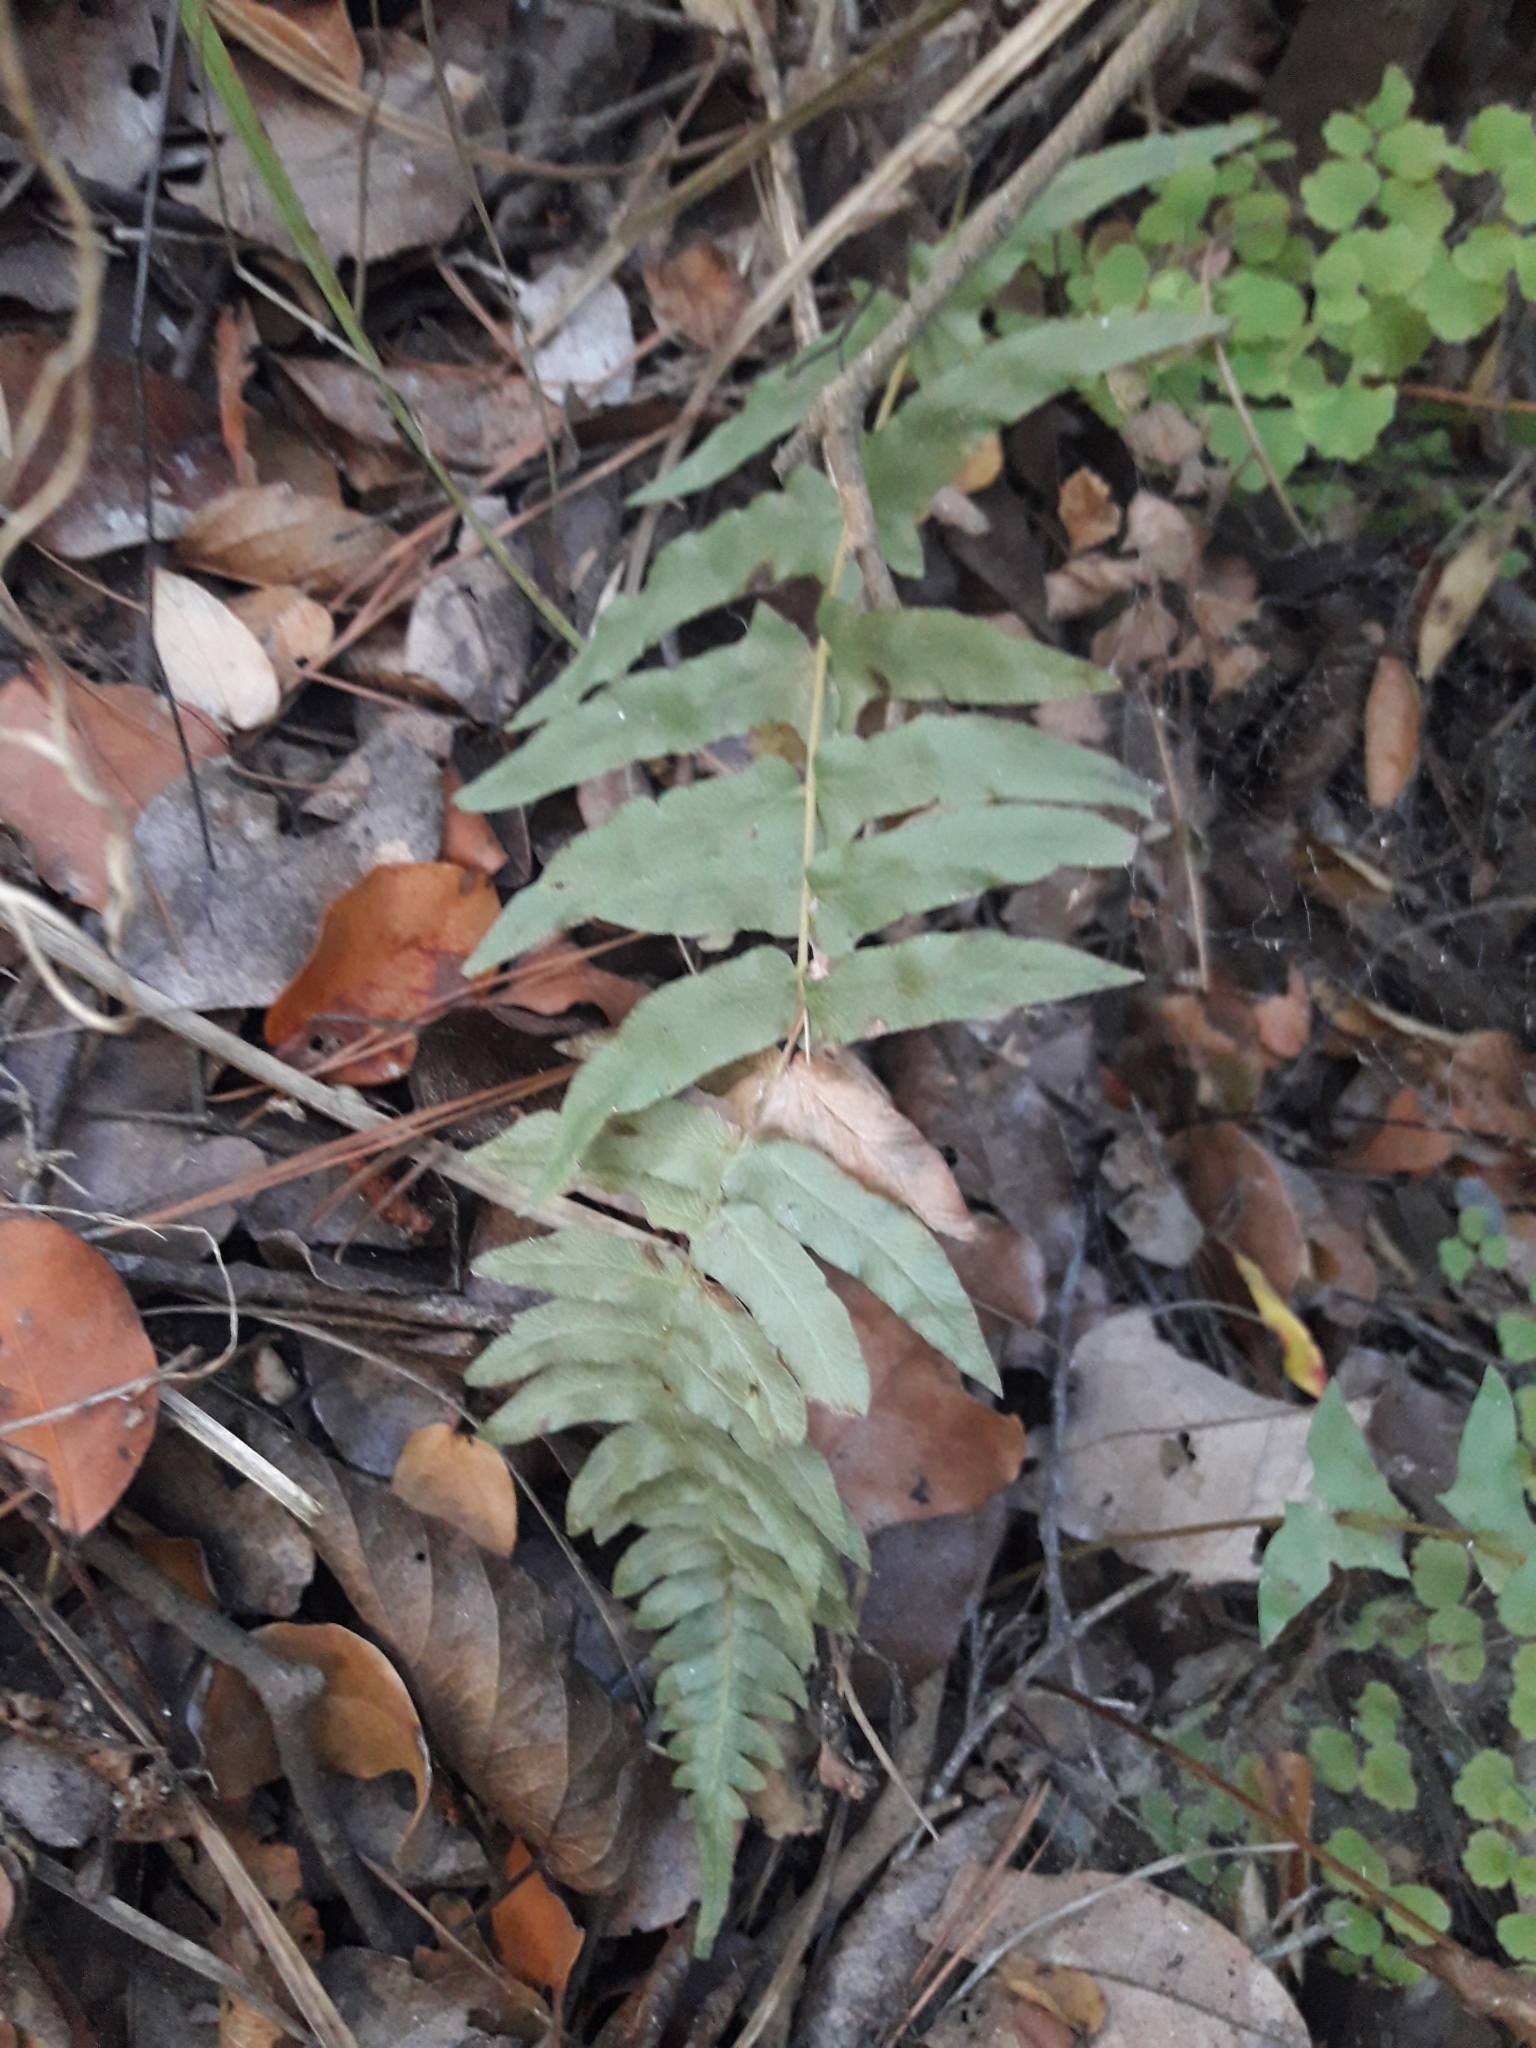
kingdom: Plantae
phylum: Tracheophyta
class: Polypodiopsida
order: Polypodiales
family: Blechnaceae
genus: Blechnum
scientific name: Blechnum hastatum
